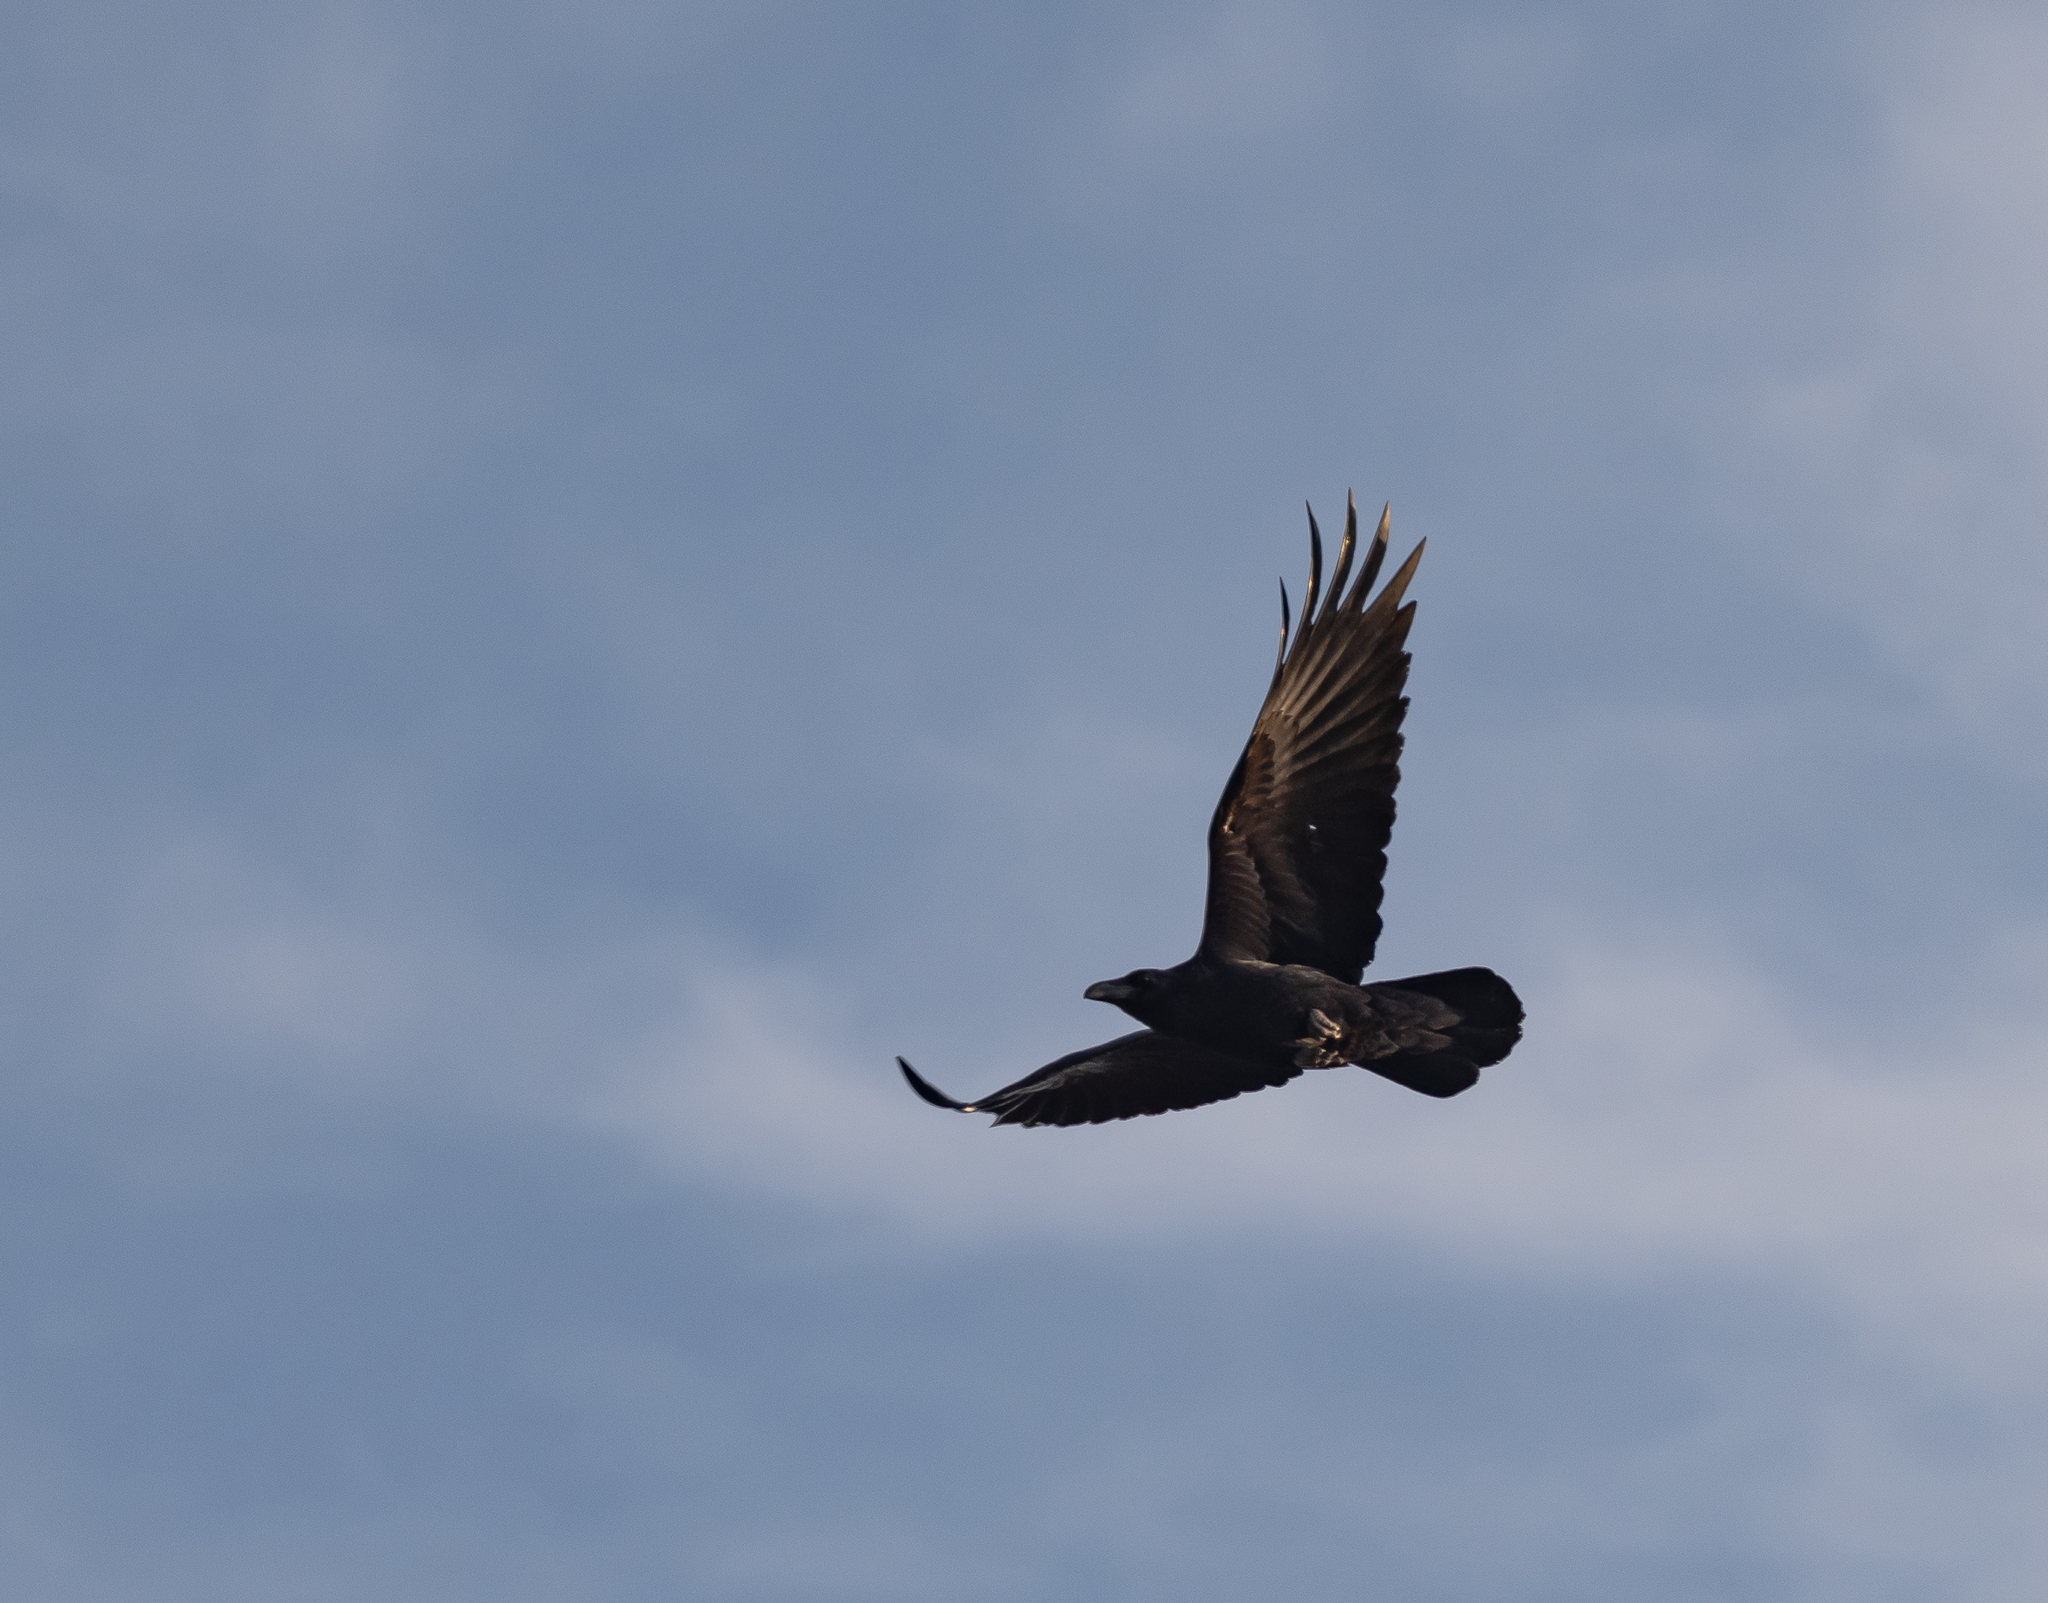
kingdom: Animalia
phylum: Chordata
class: Aves
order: Passeriformes
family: Corvidae
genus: Corvus
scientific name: Corvus corax
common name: Common raven
